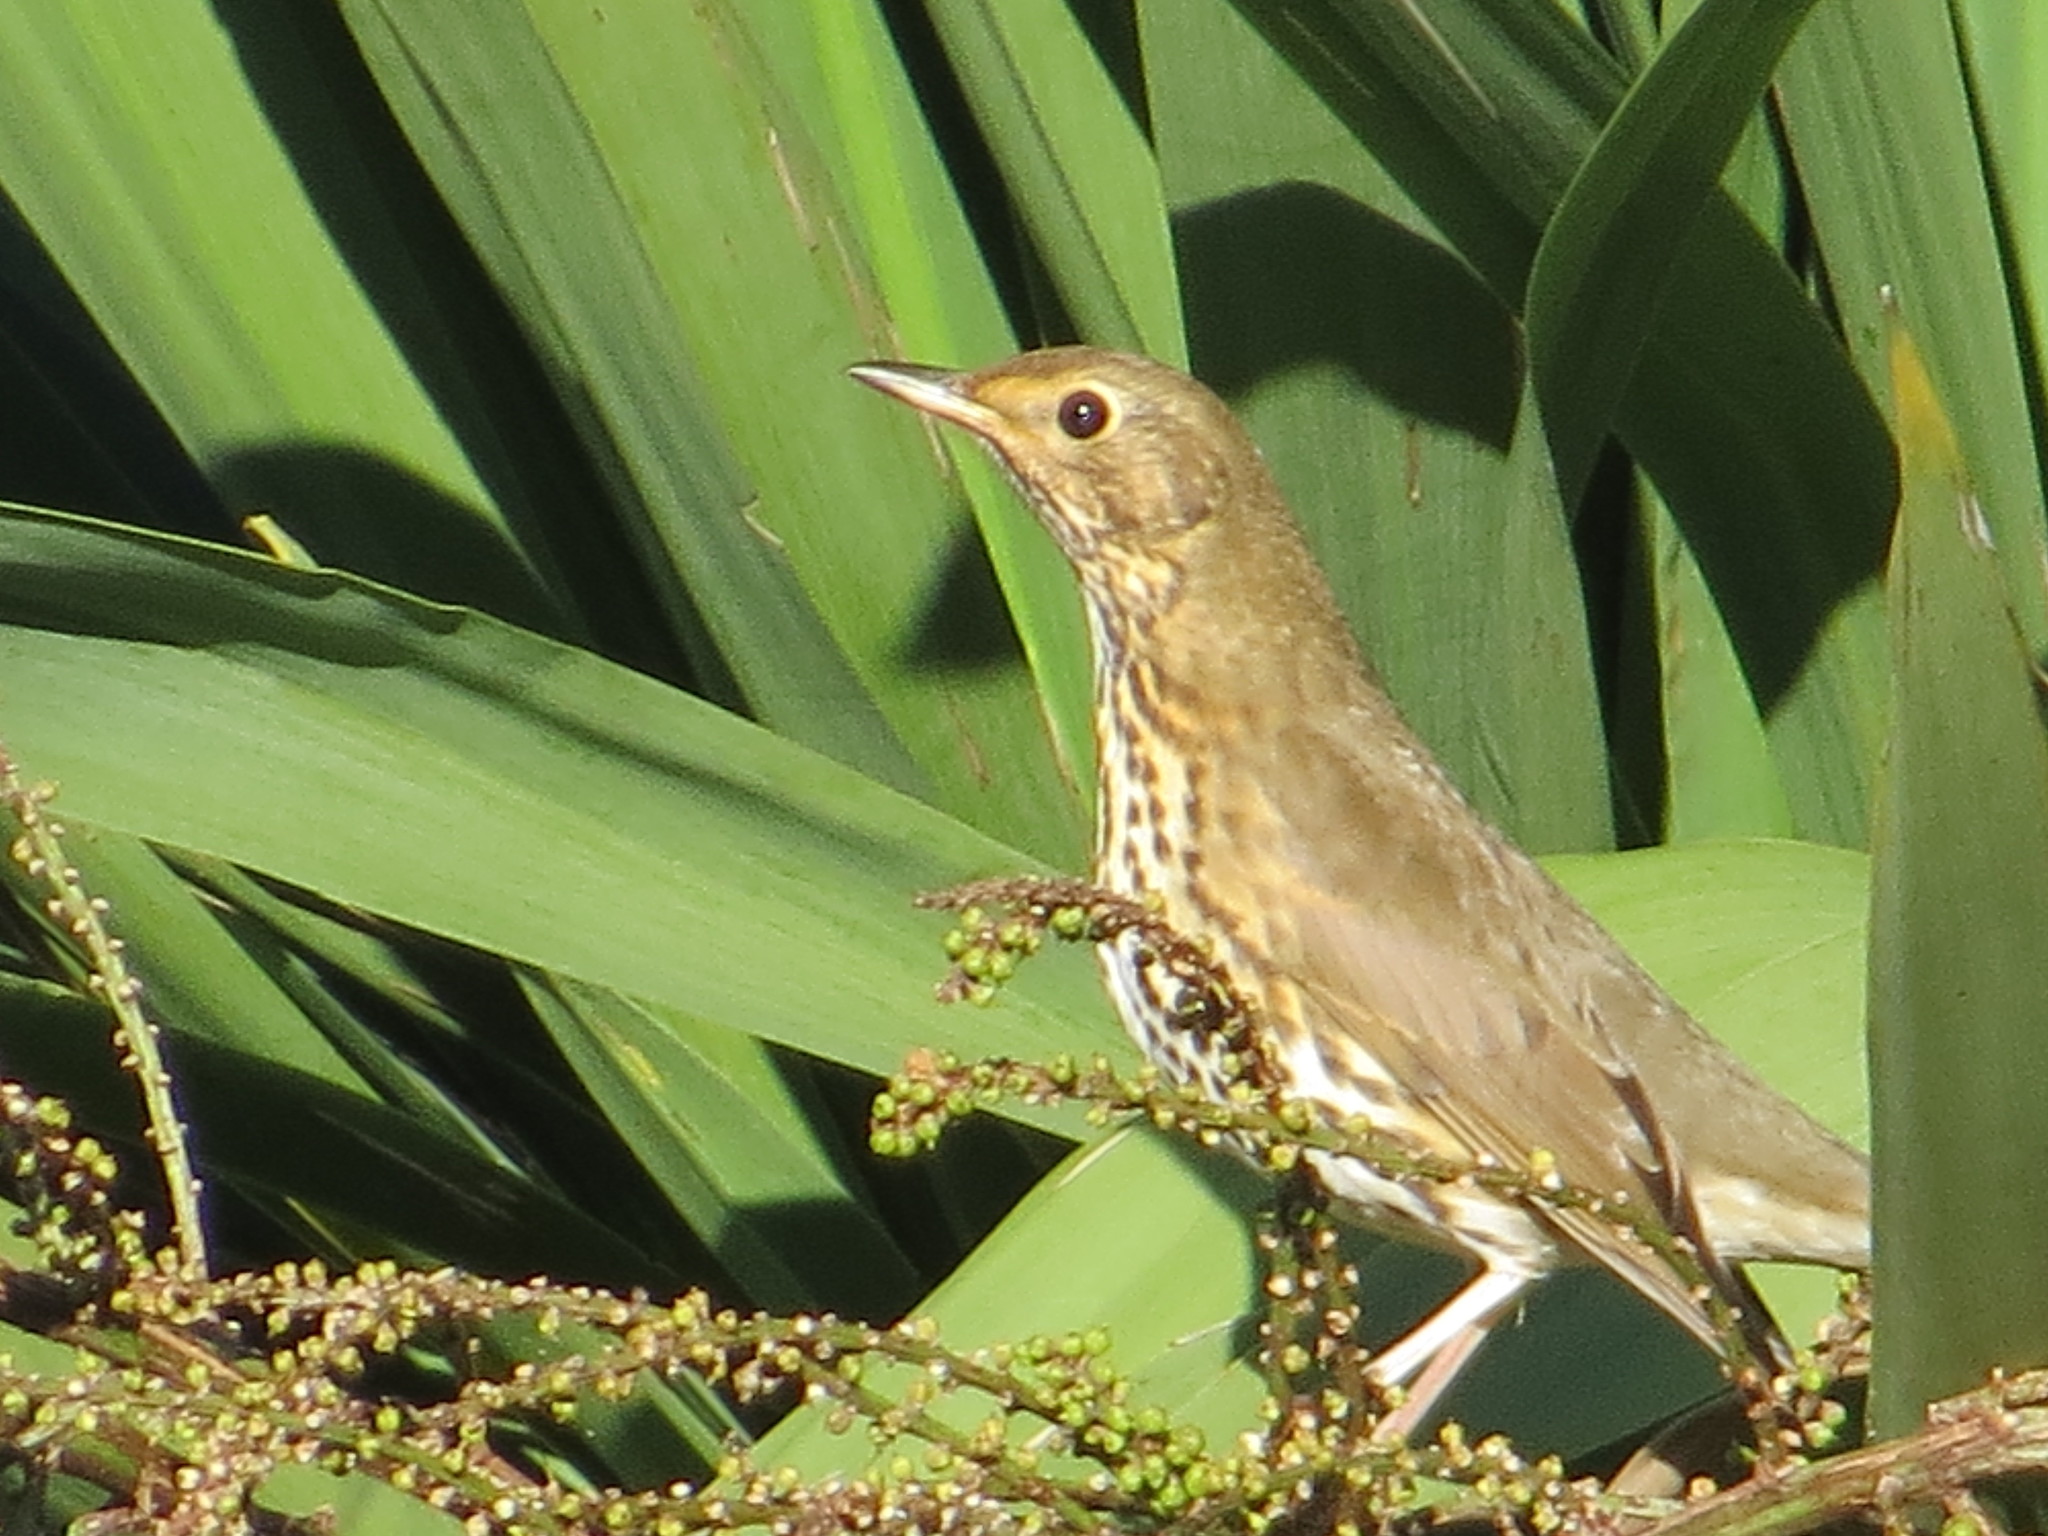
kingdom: Animalia
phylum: Chordata
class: Aves
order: Passeriformes
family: Turdidae
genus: Turdus
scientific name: Turdus philomelos
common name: Song thrush
